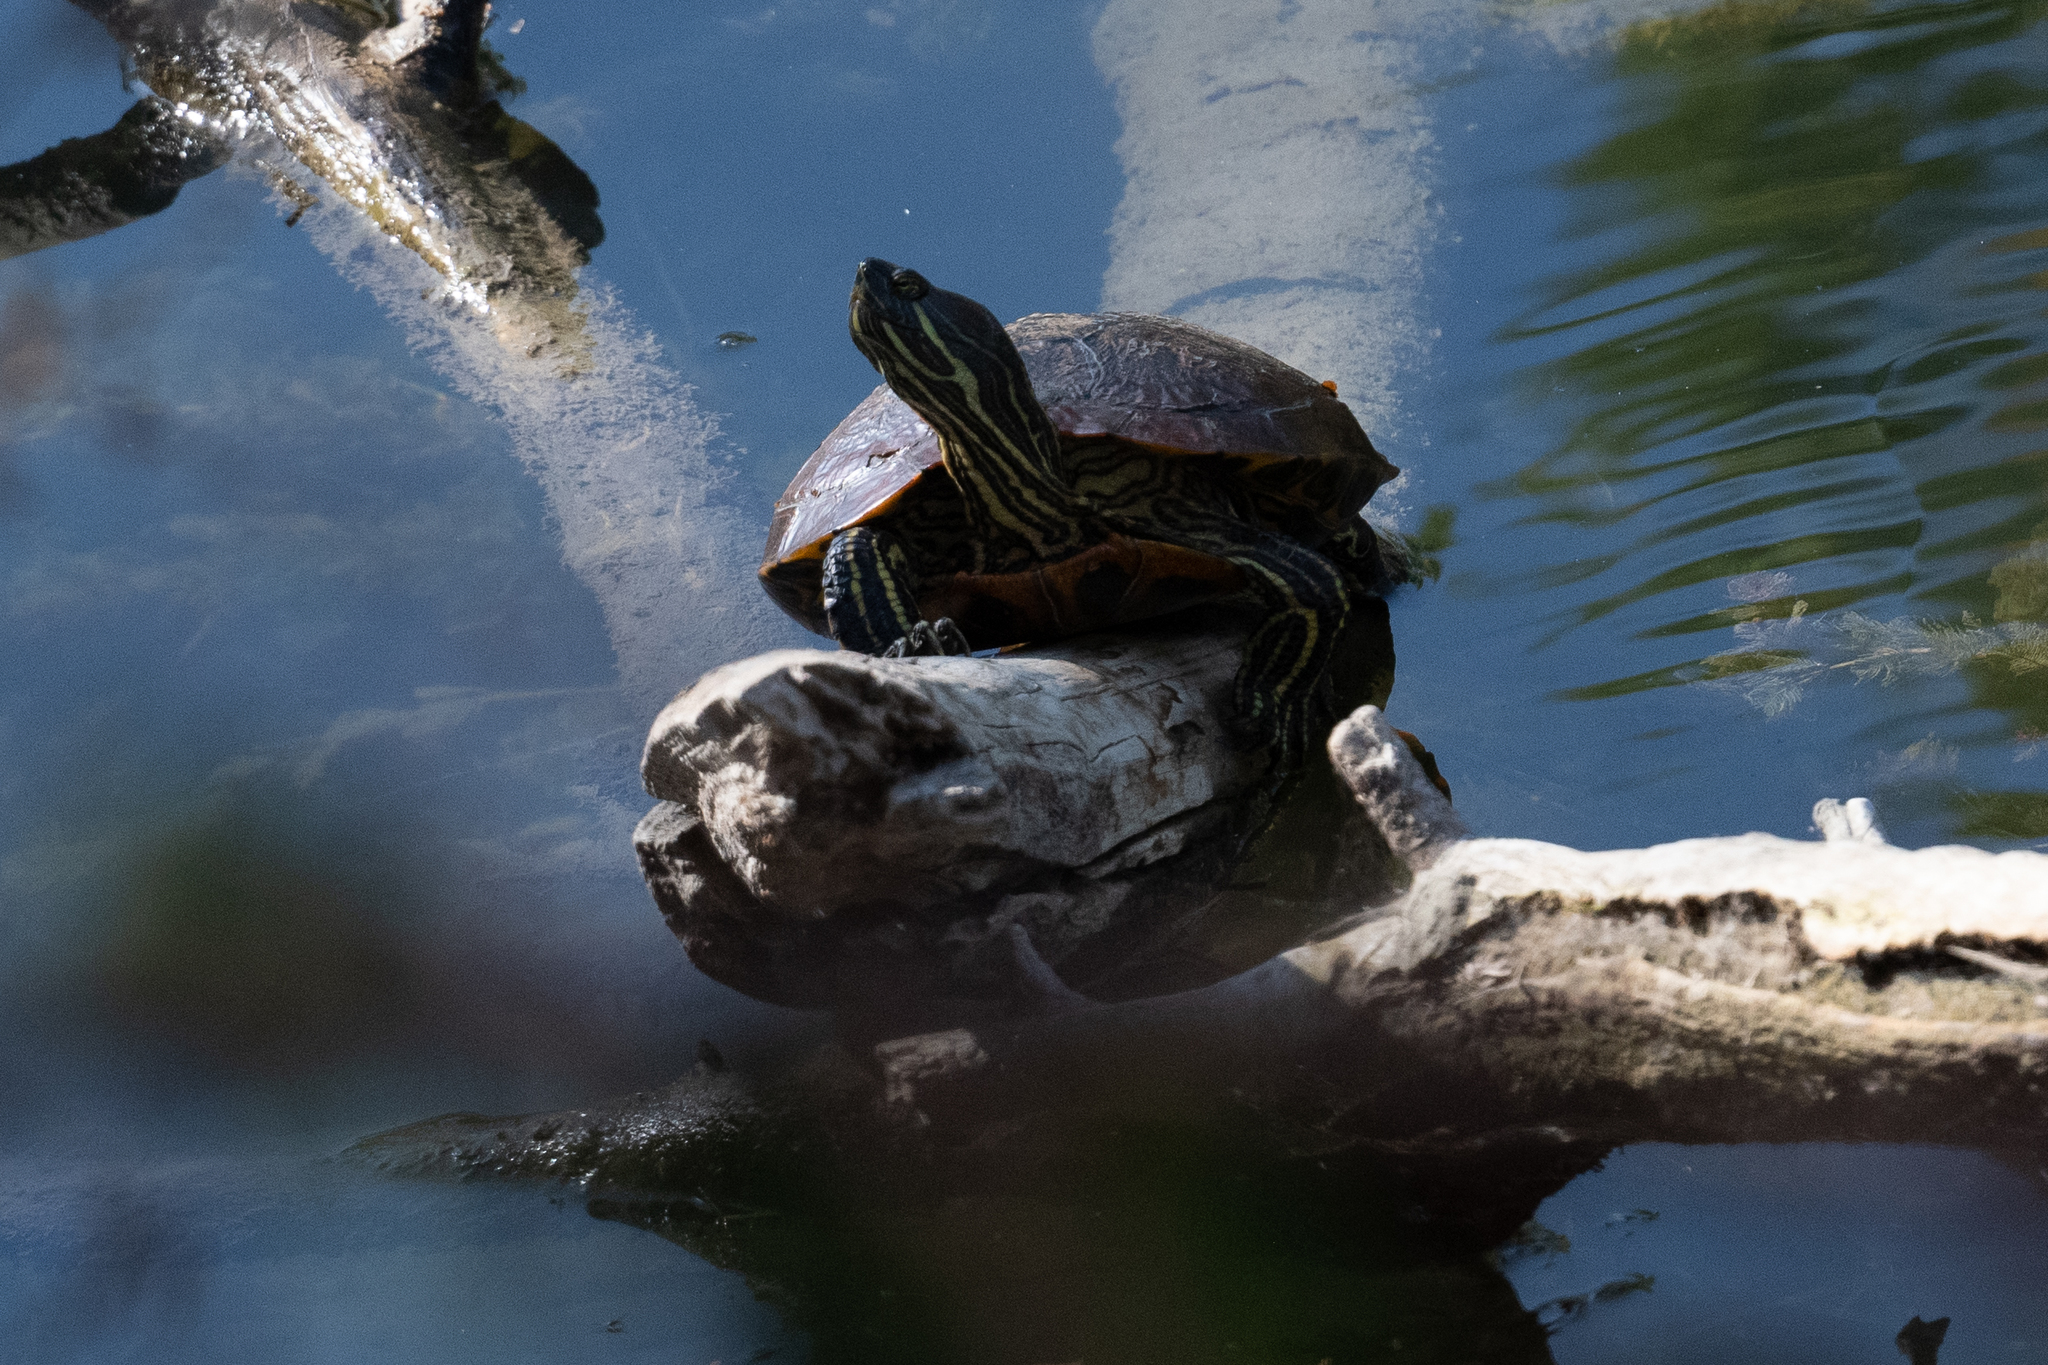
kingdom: Animalia
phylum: Chordata
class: Testudines
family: Emydidae
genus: Trachemys
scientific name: Trachemys scripta
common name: Slider
